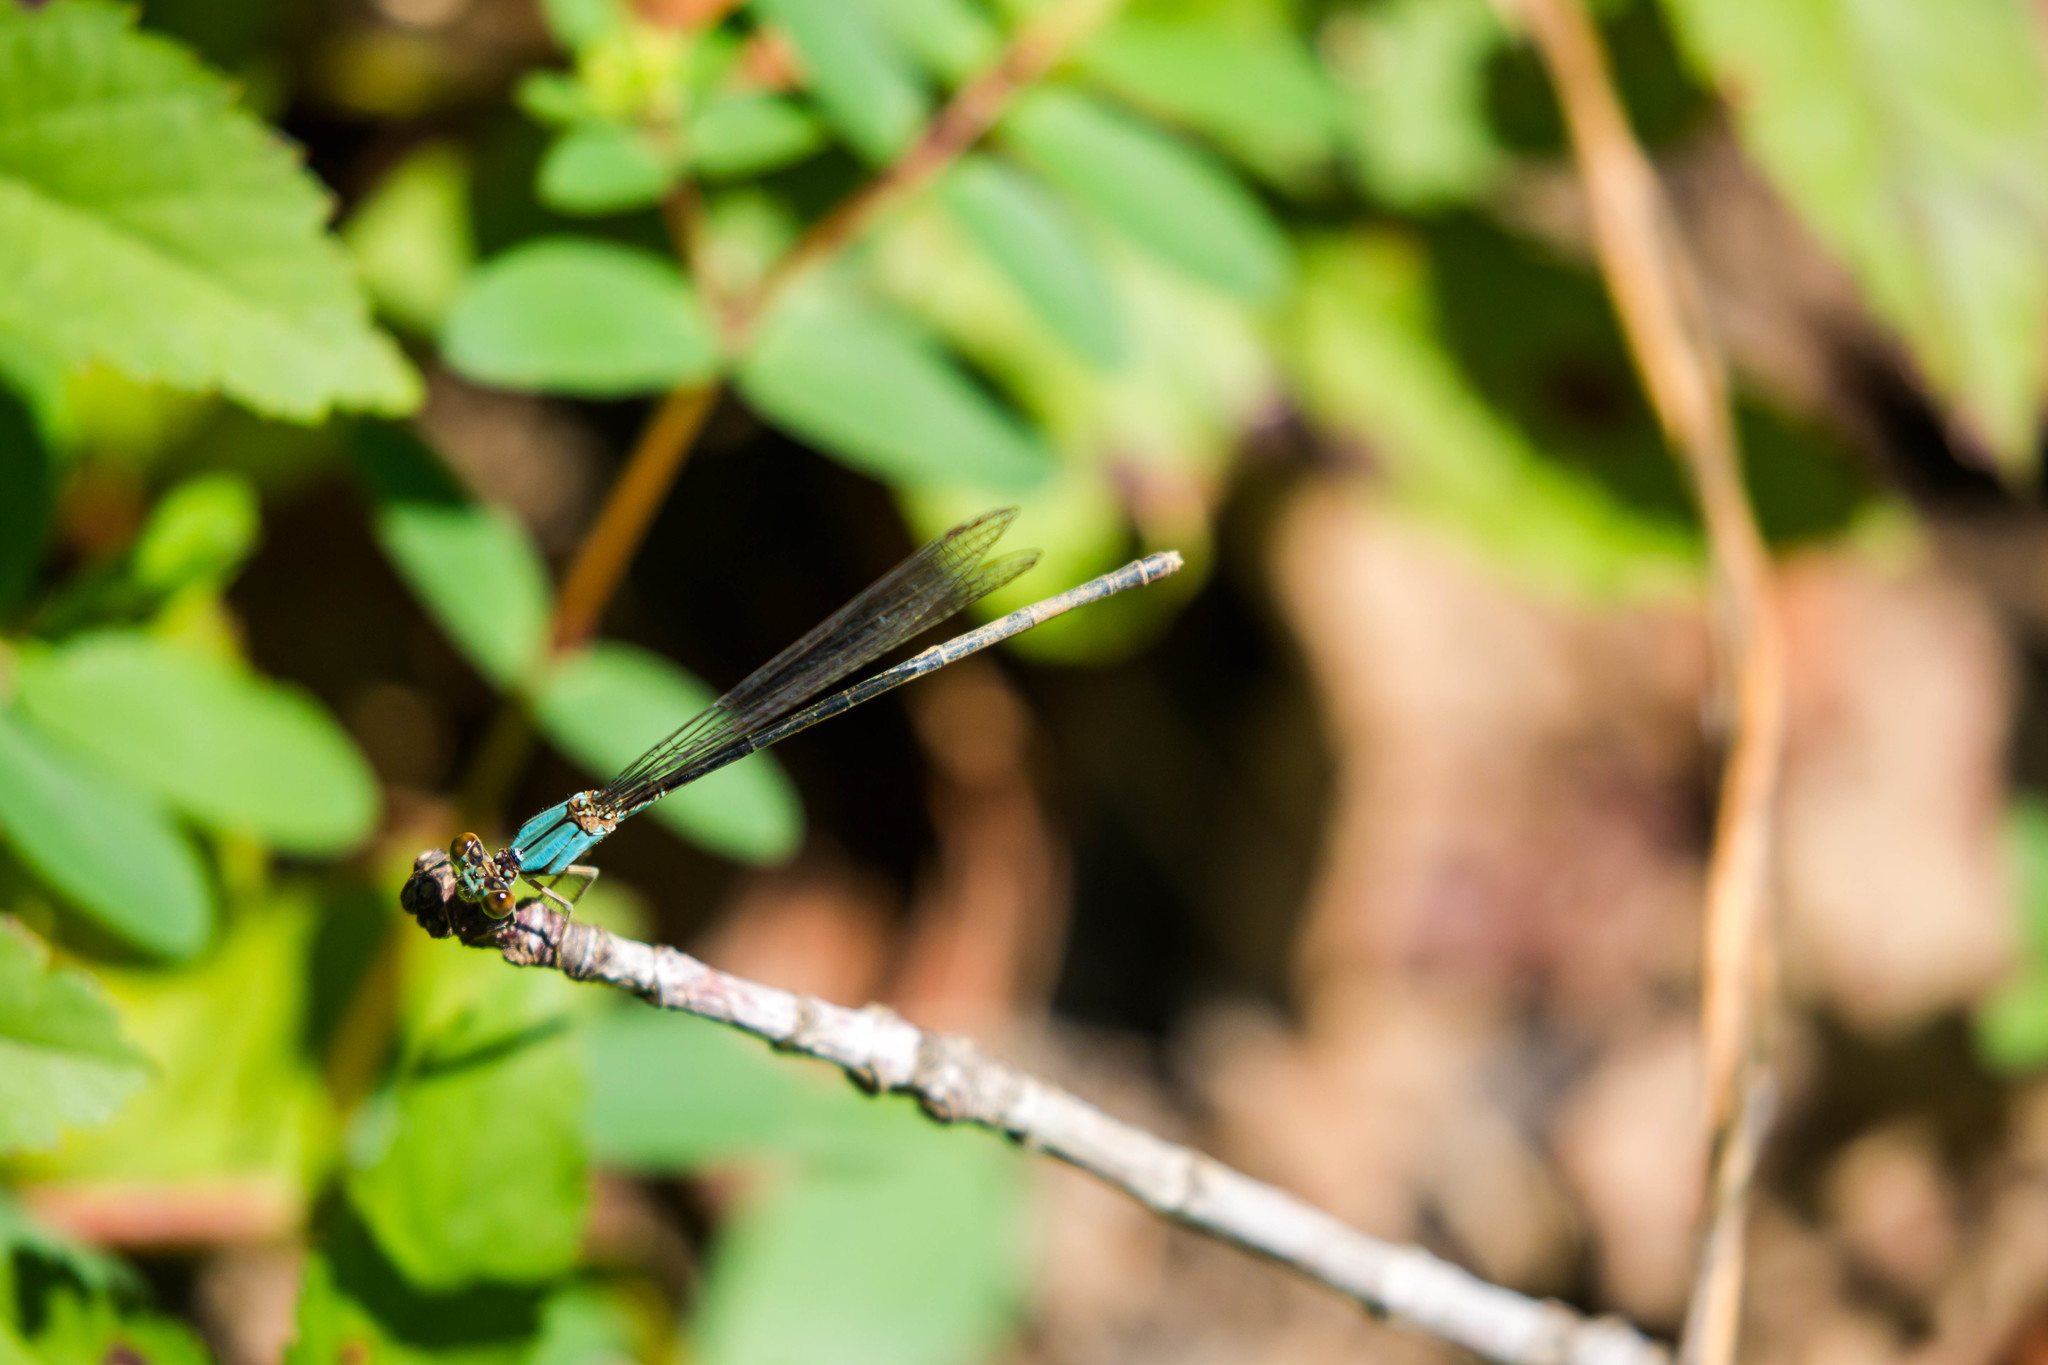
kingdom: Animalia
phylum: Arthropoda
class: Insecta
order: Odonata
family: Coenagrionidae
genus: Argia
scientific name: Argia apicalis
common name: Blue-fronted dancer
